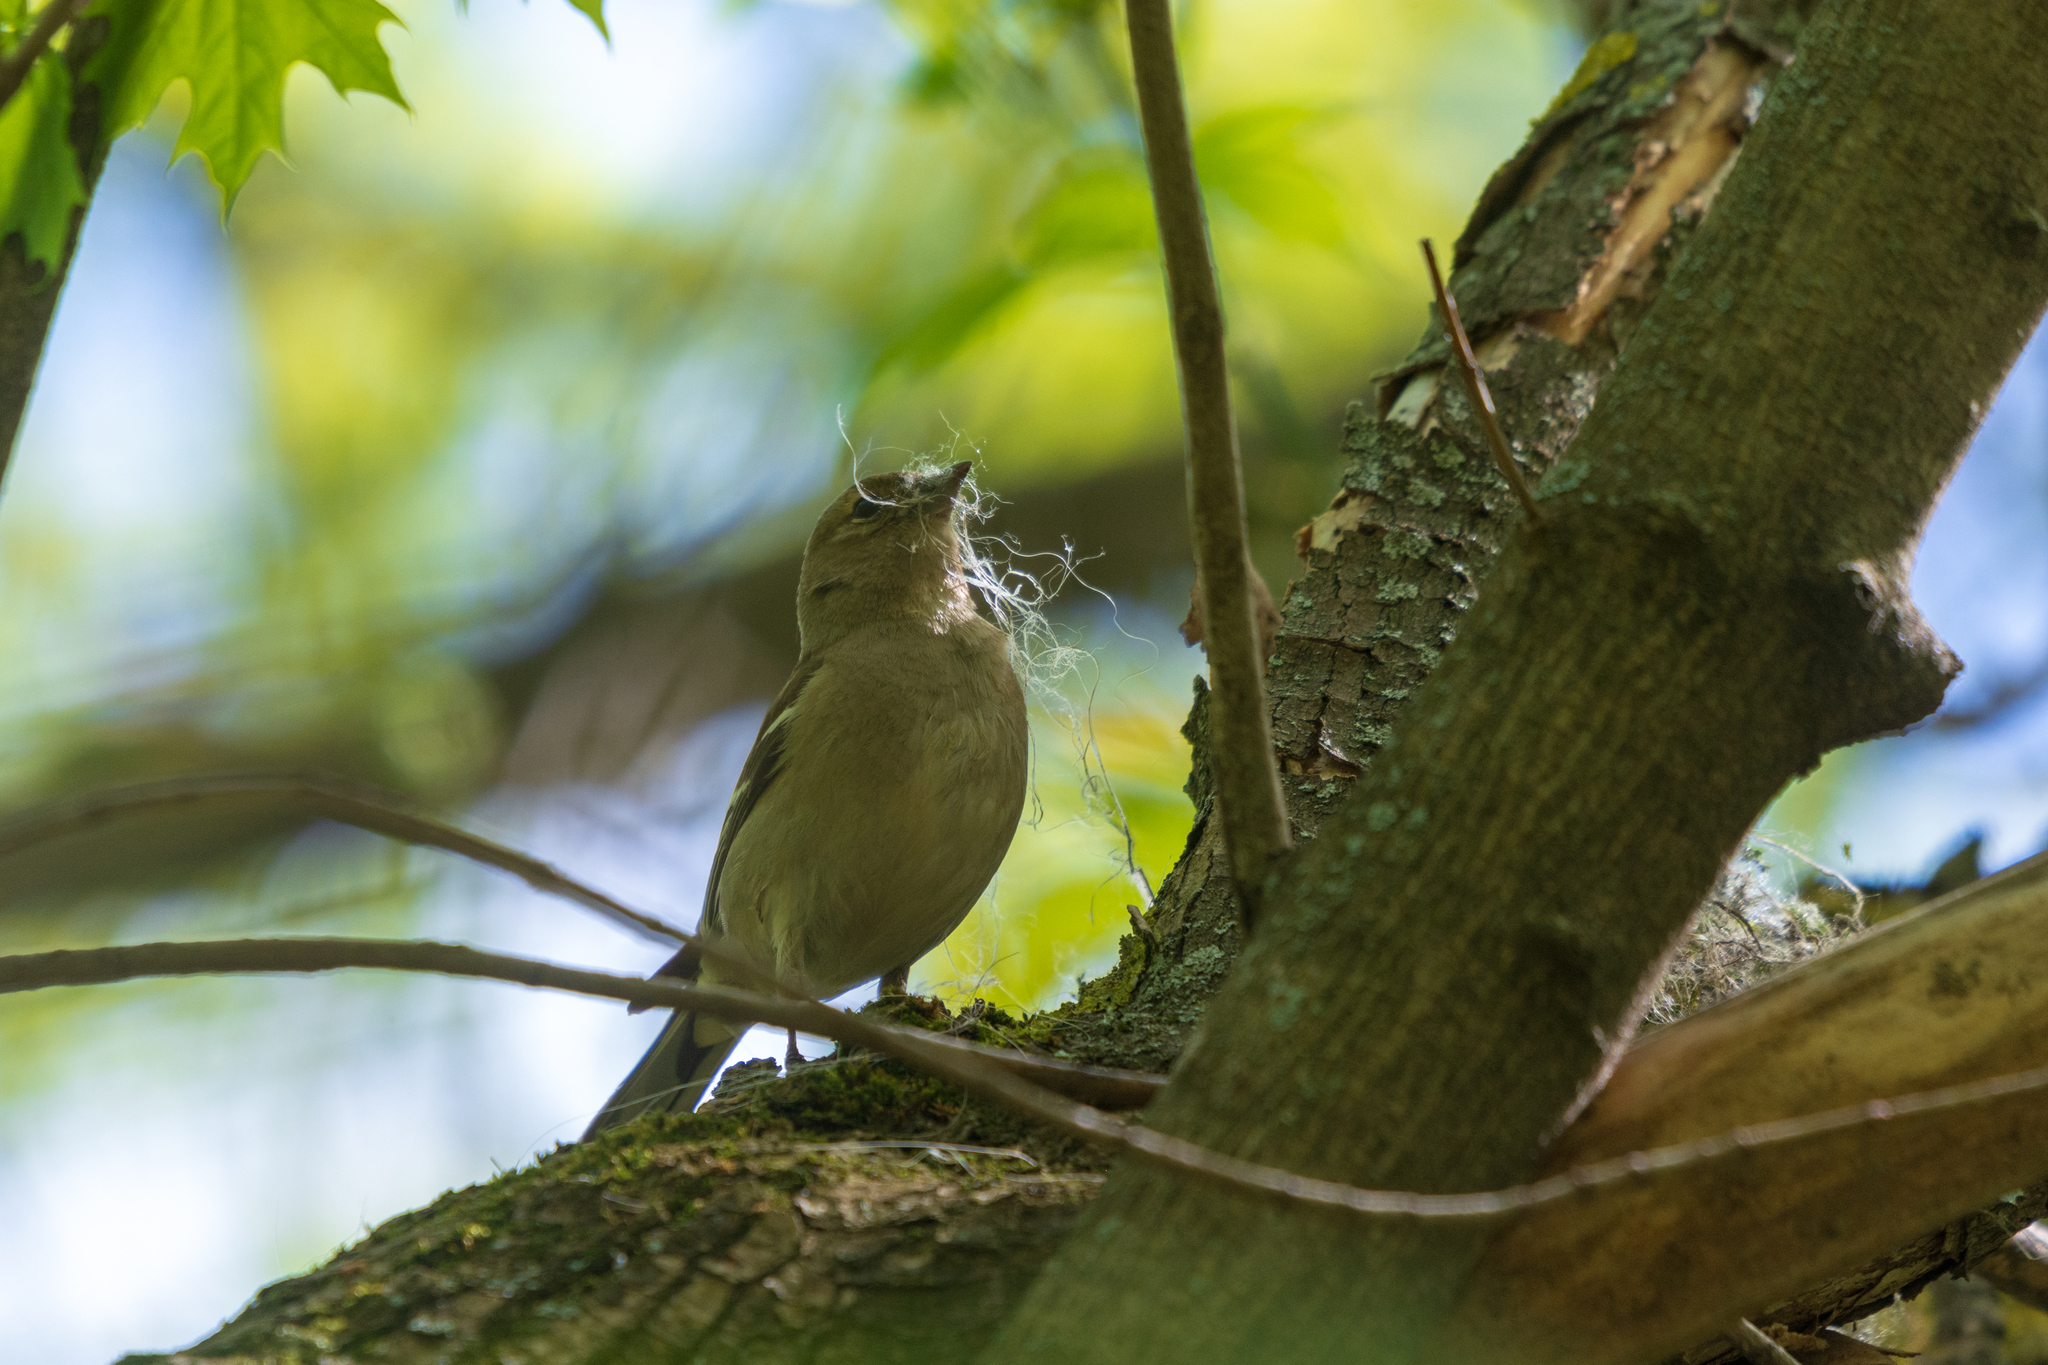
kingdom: Animalia
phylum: Chordata
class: Aves
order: Passeriformes
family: Fringillidae
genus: Fringilla
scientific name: Fringilla coelebs
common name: Common chaffinch
